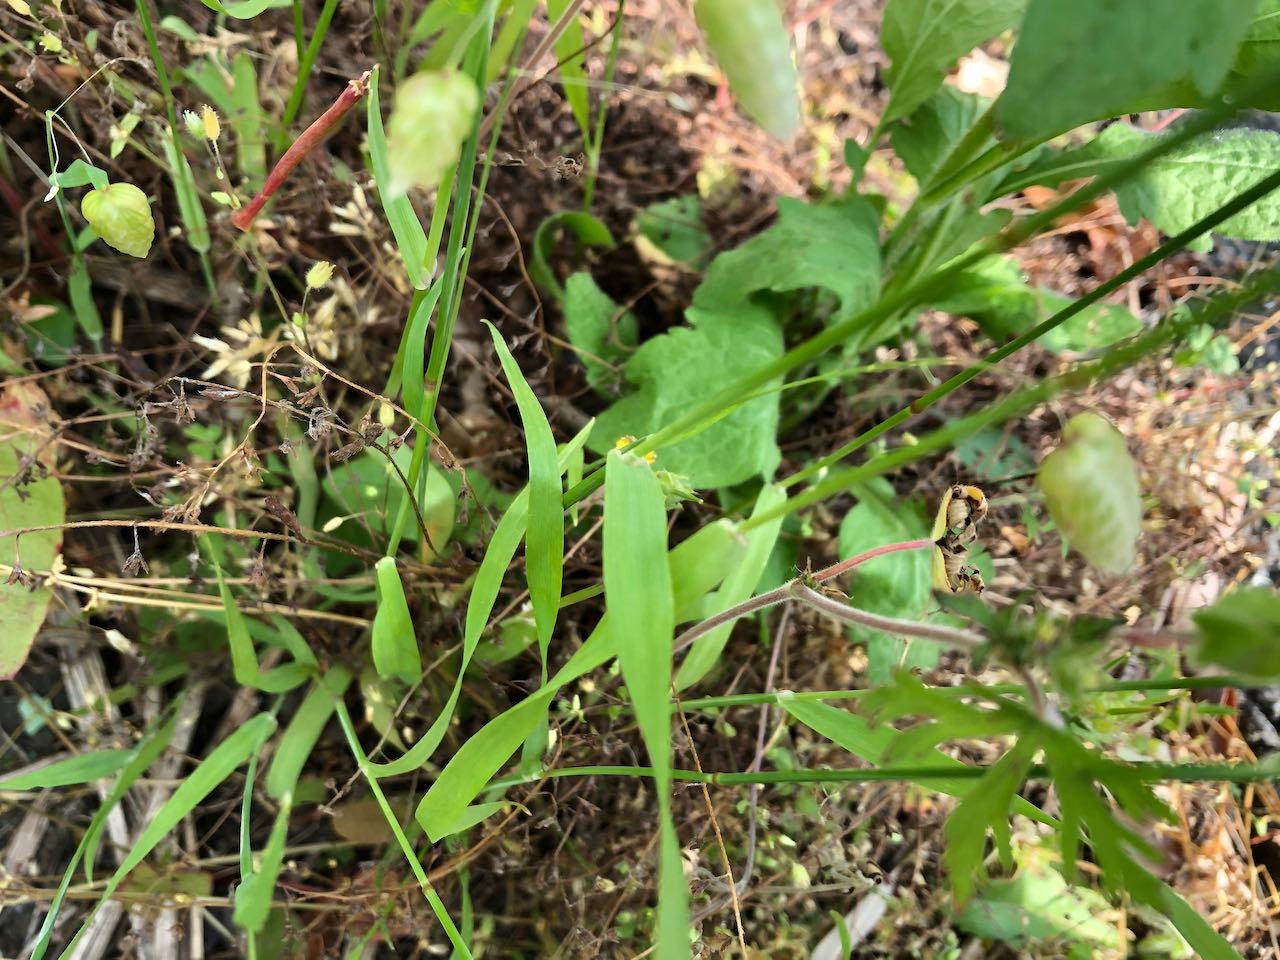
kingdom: Plantae
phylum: Tracheophyta
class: Liliopsida
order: Poales
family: Poaceae
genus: Briza
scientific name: Briza maxima
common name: Big quakinggrass
